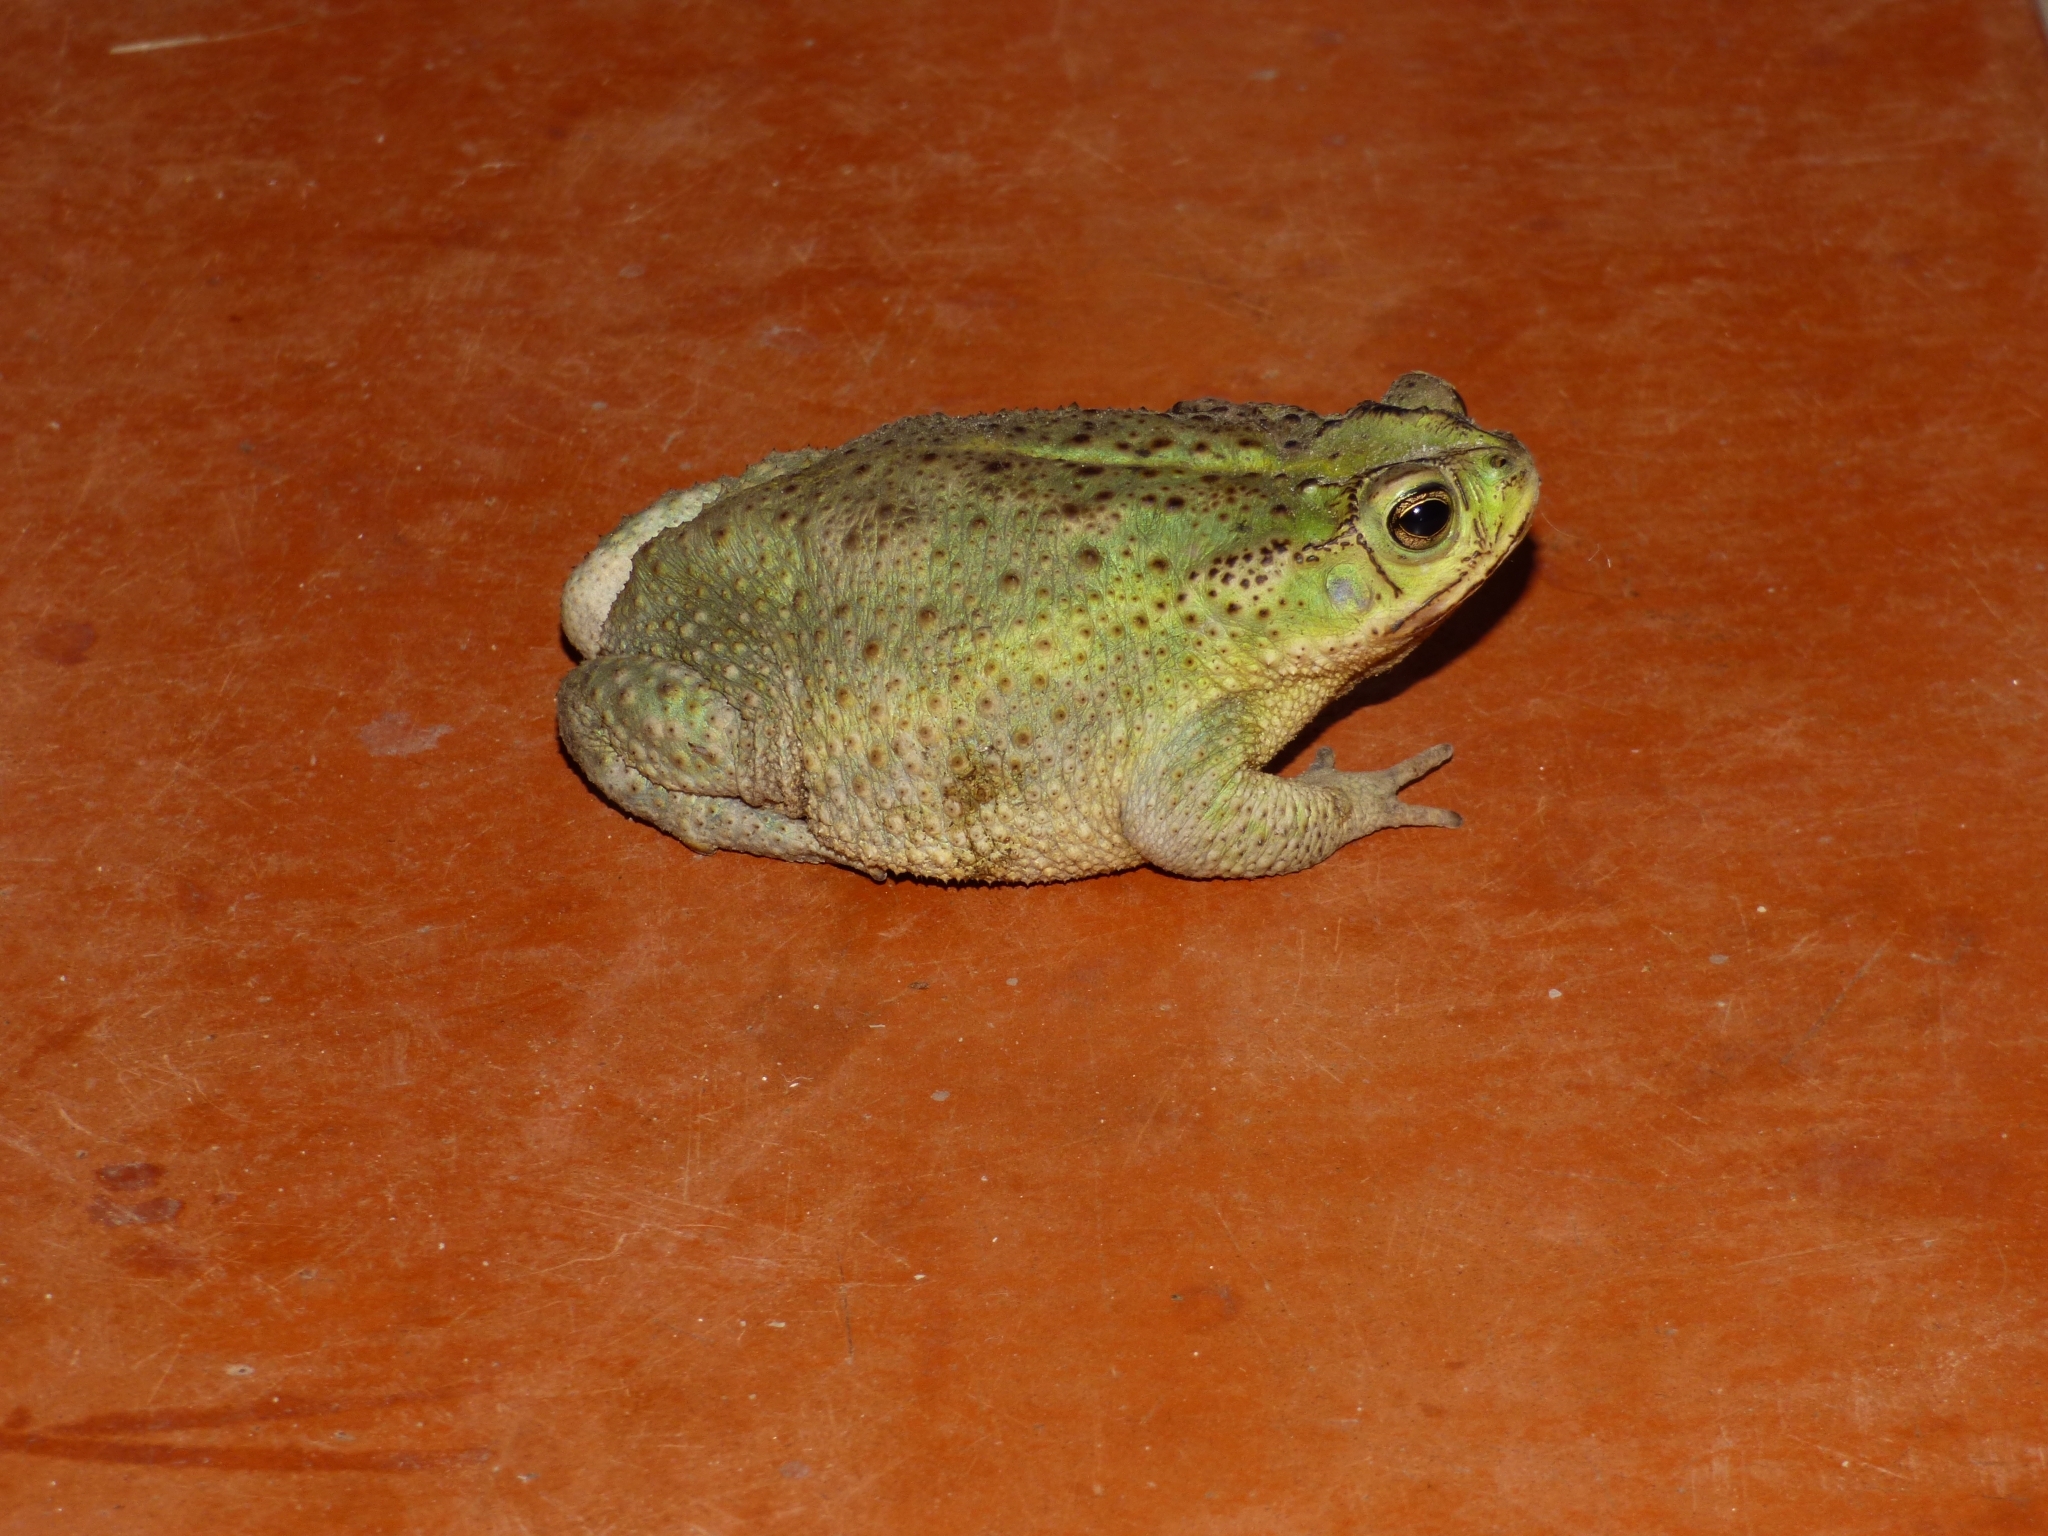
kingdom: Animalia
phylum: Chordata
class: Amphibia
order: Anura
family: Bufonidae
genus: Rhinella
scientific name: Rhinella icterica
